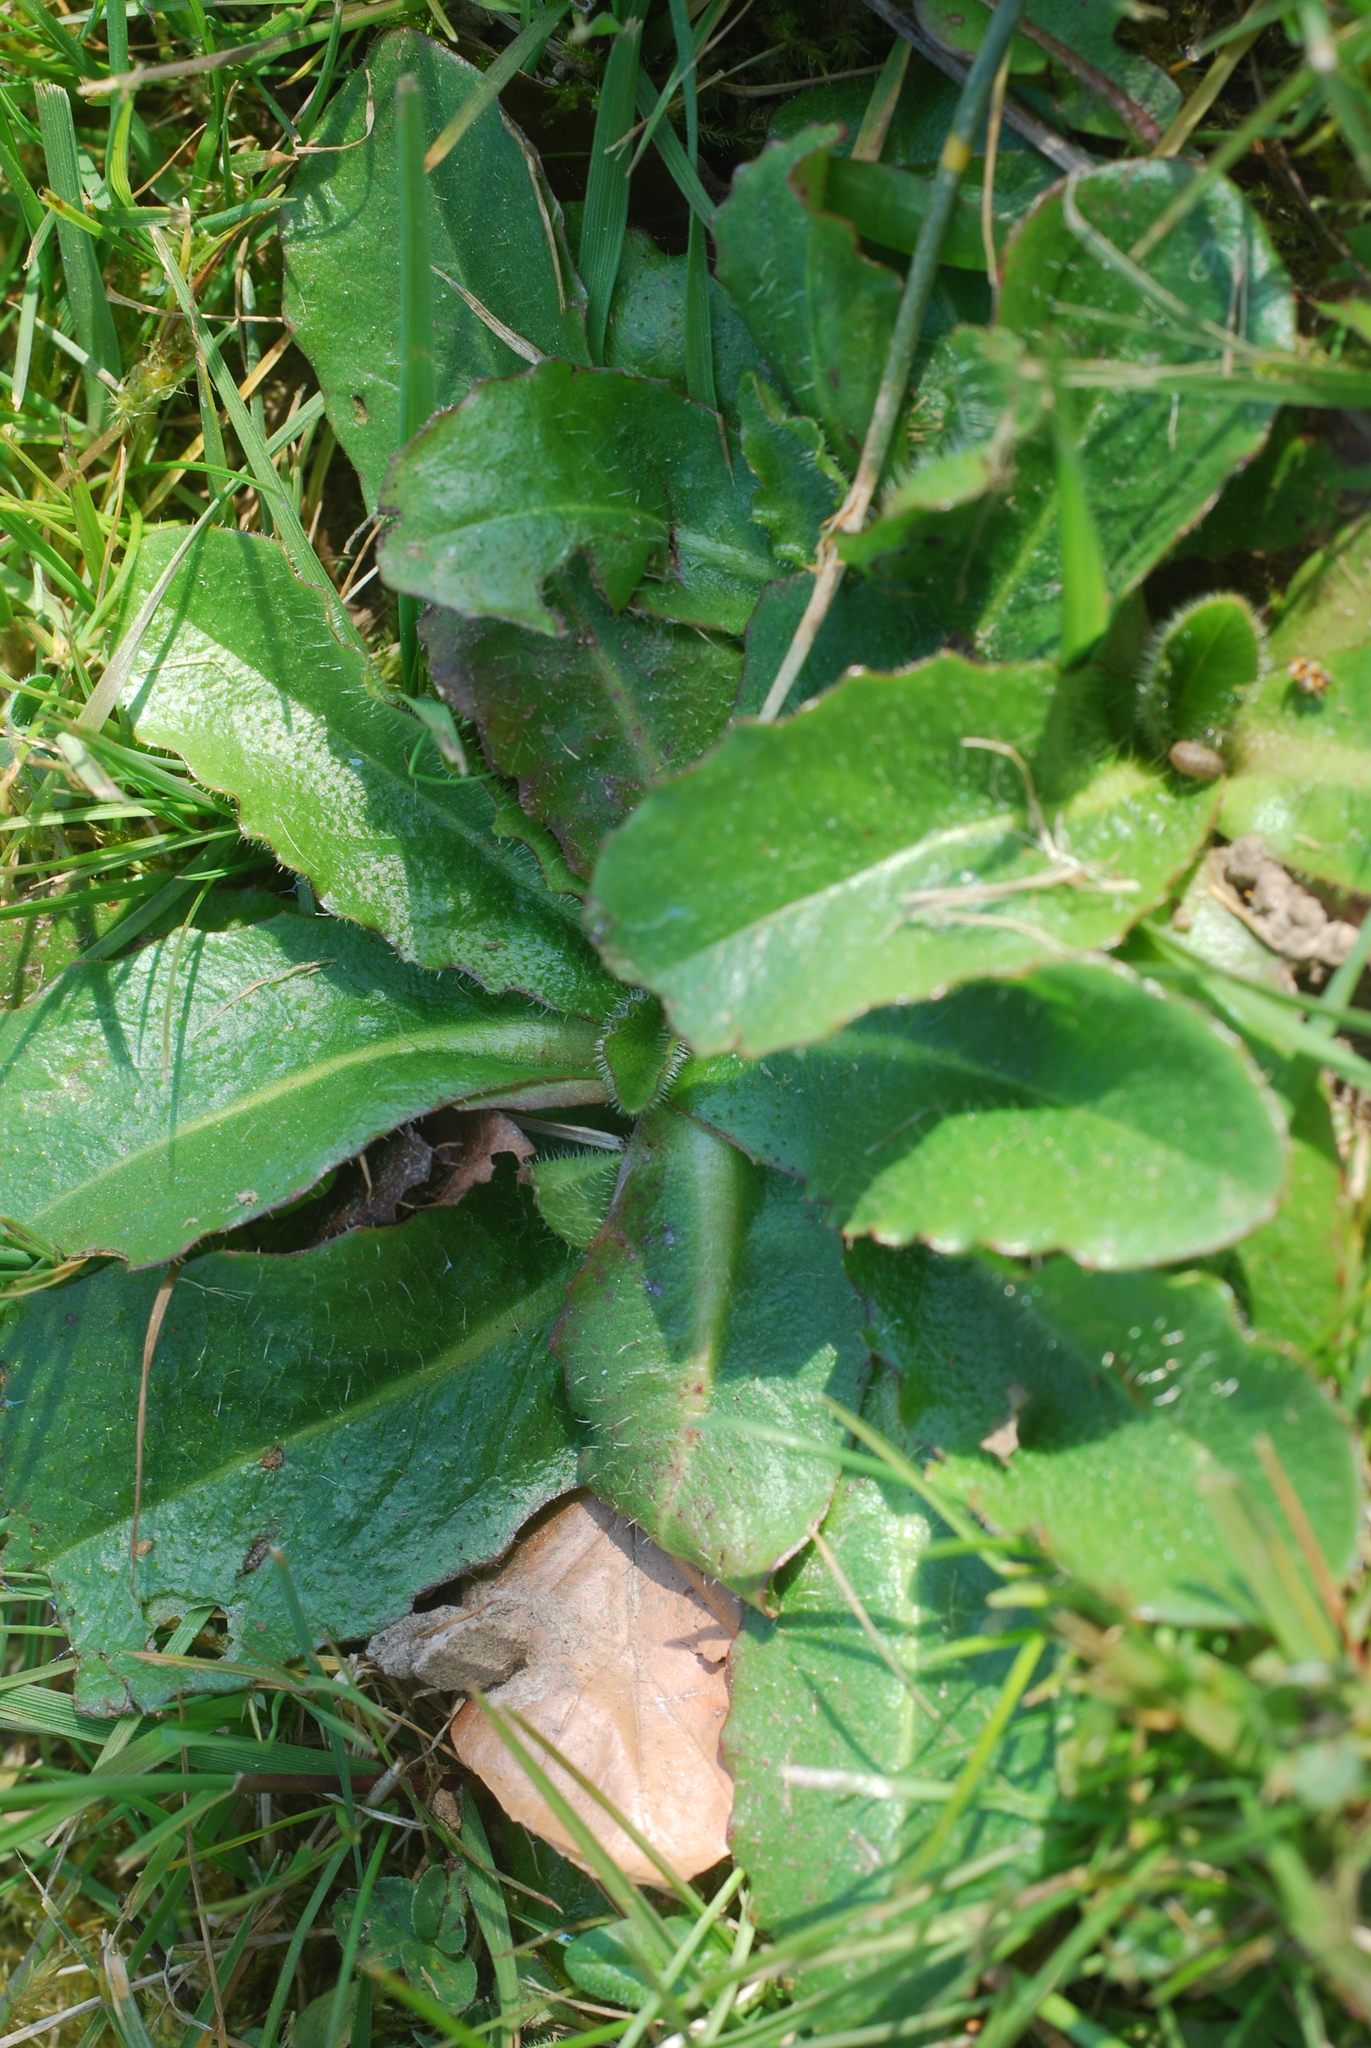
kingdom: Plantae
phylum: Tracheophyta
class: Magnoliopsida
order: Asterales
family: Asteraceae
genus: Hypochaeris
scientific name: Hypochaeris radicata
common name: Flatweed
